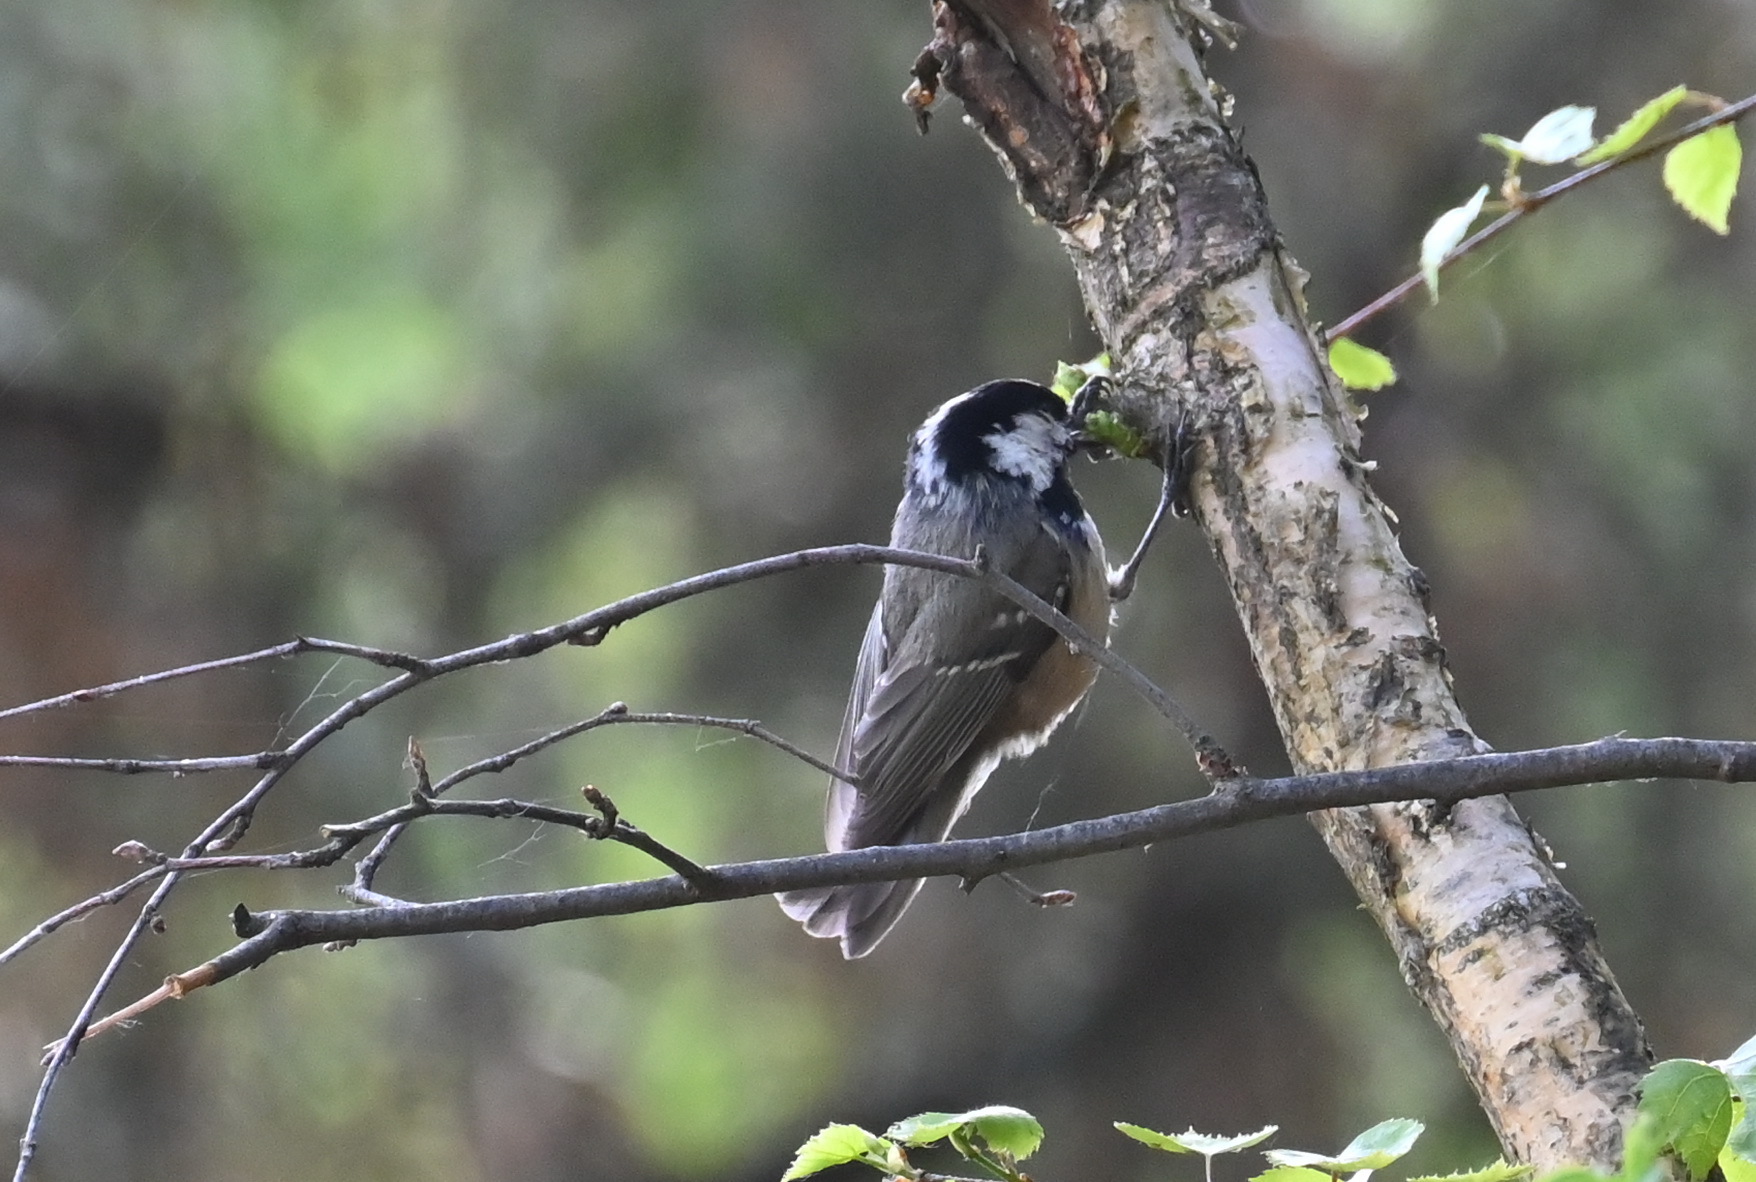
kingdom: Animalia
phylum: Chordata
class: Aves
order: Passeriformes
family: Paridae
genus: Periparus
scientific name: Periparus ater
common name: Coal tit
